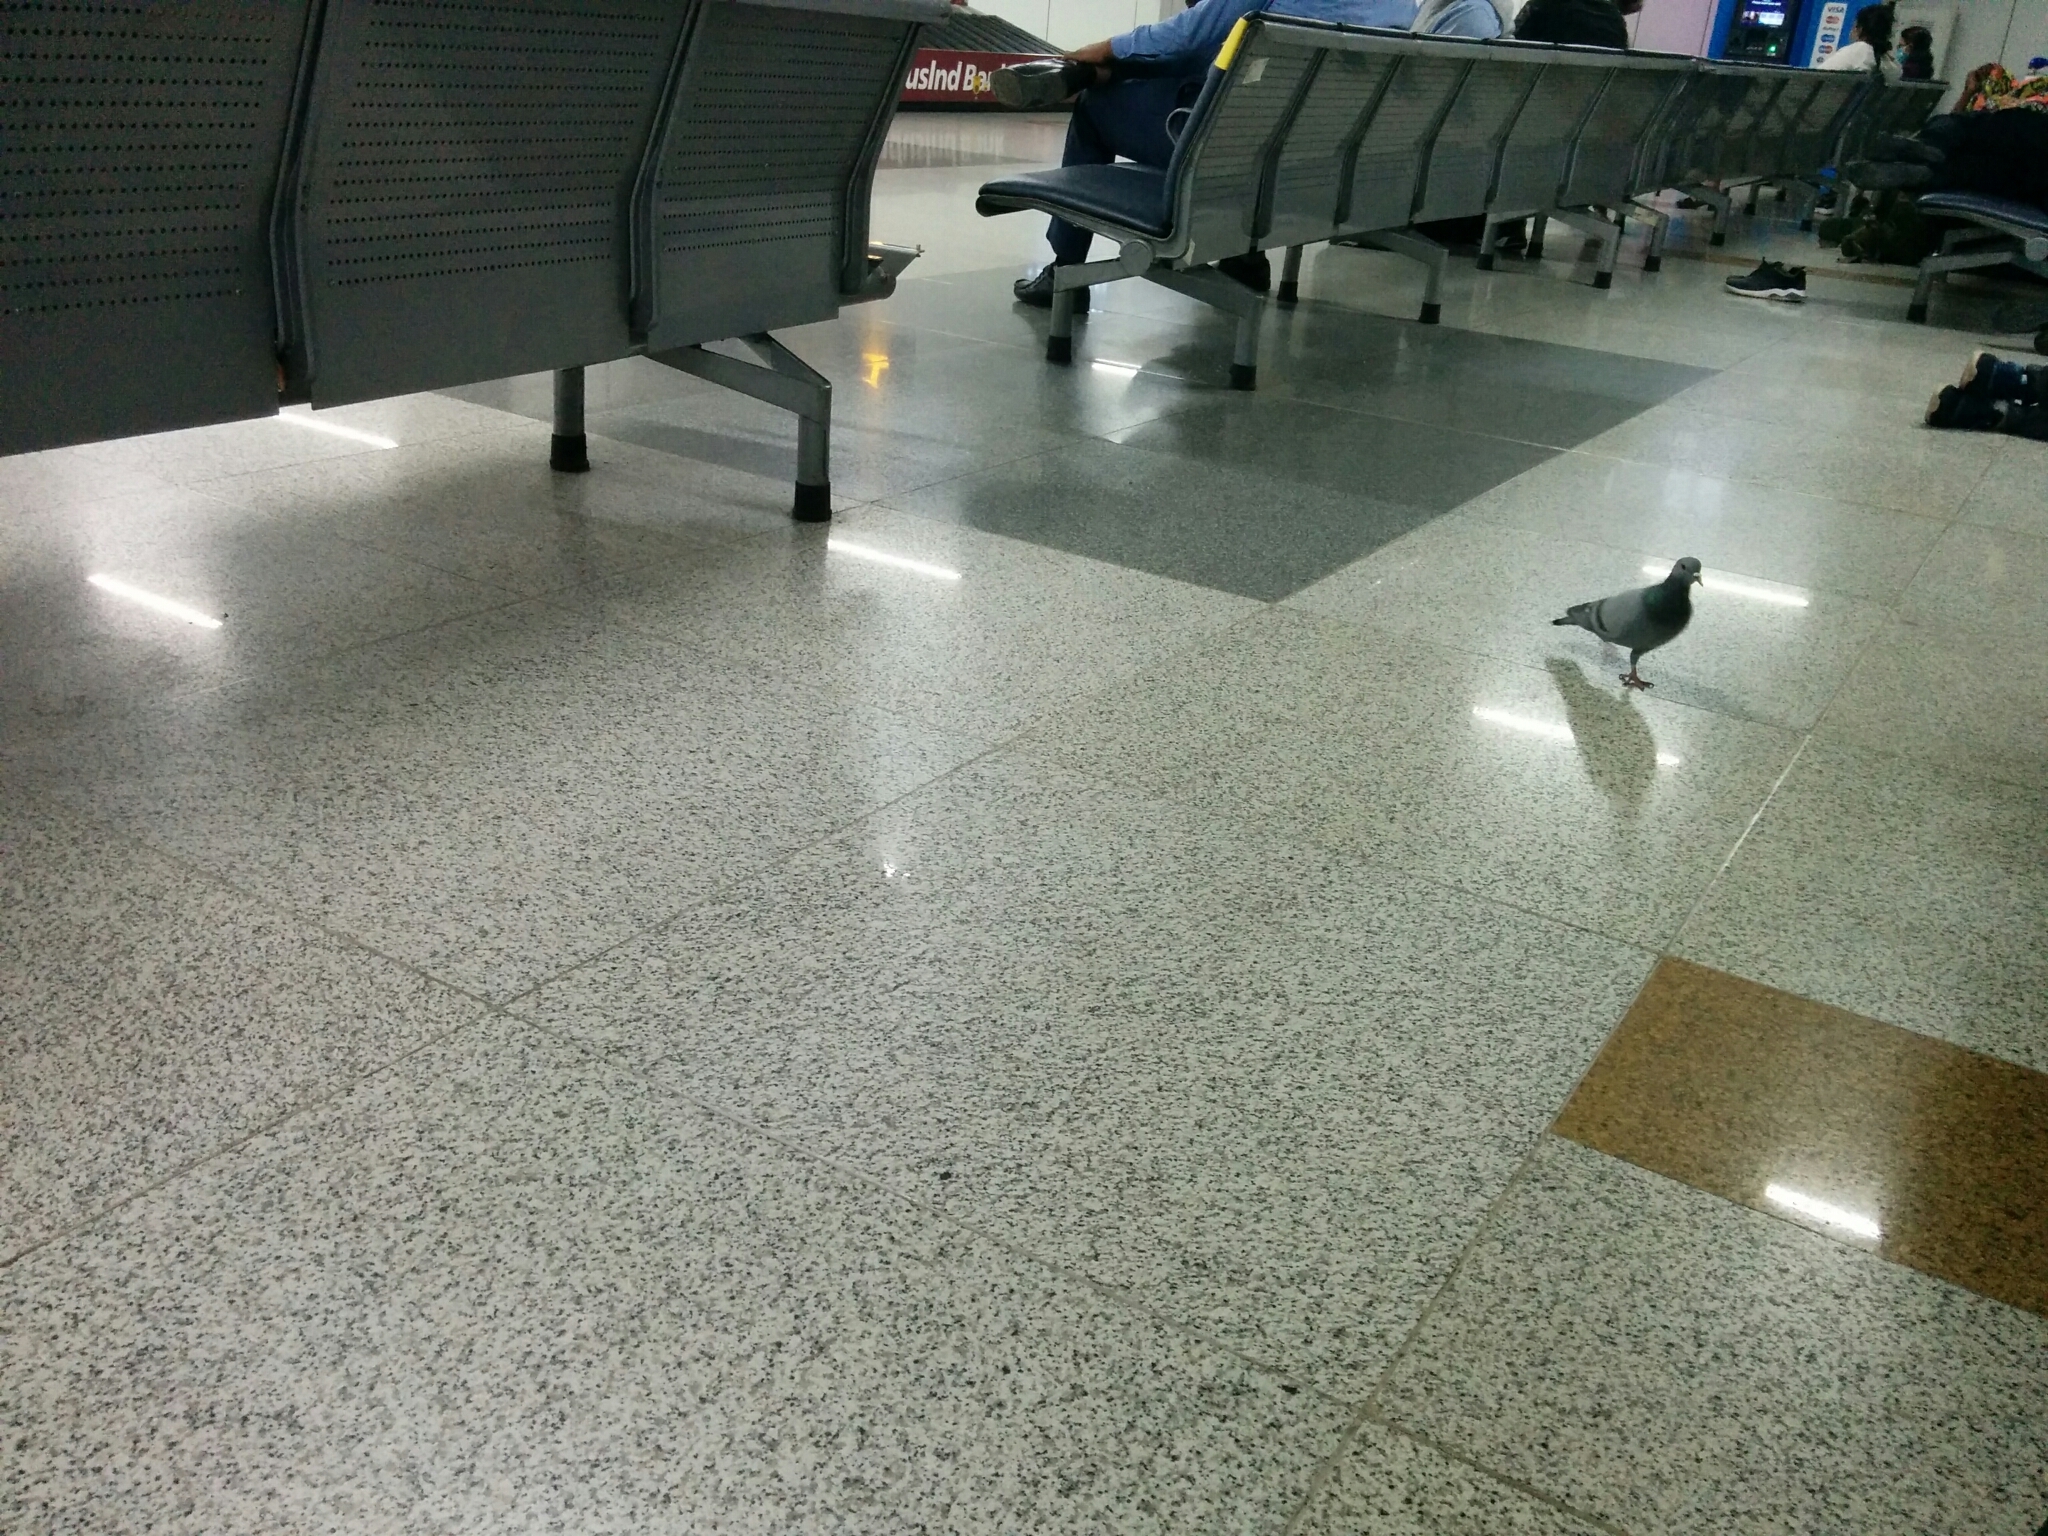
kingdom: Animalia
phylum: Chordata
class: Aves
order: Columbiformes
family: Columbidae
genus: Columba
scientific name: Columba livia
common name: Rock pigeon
